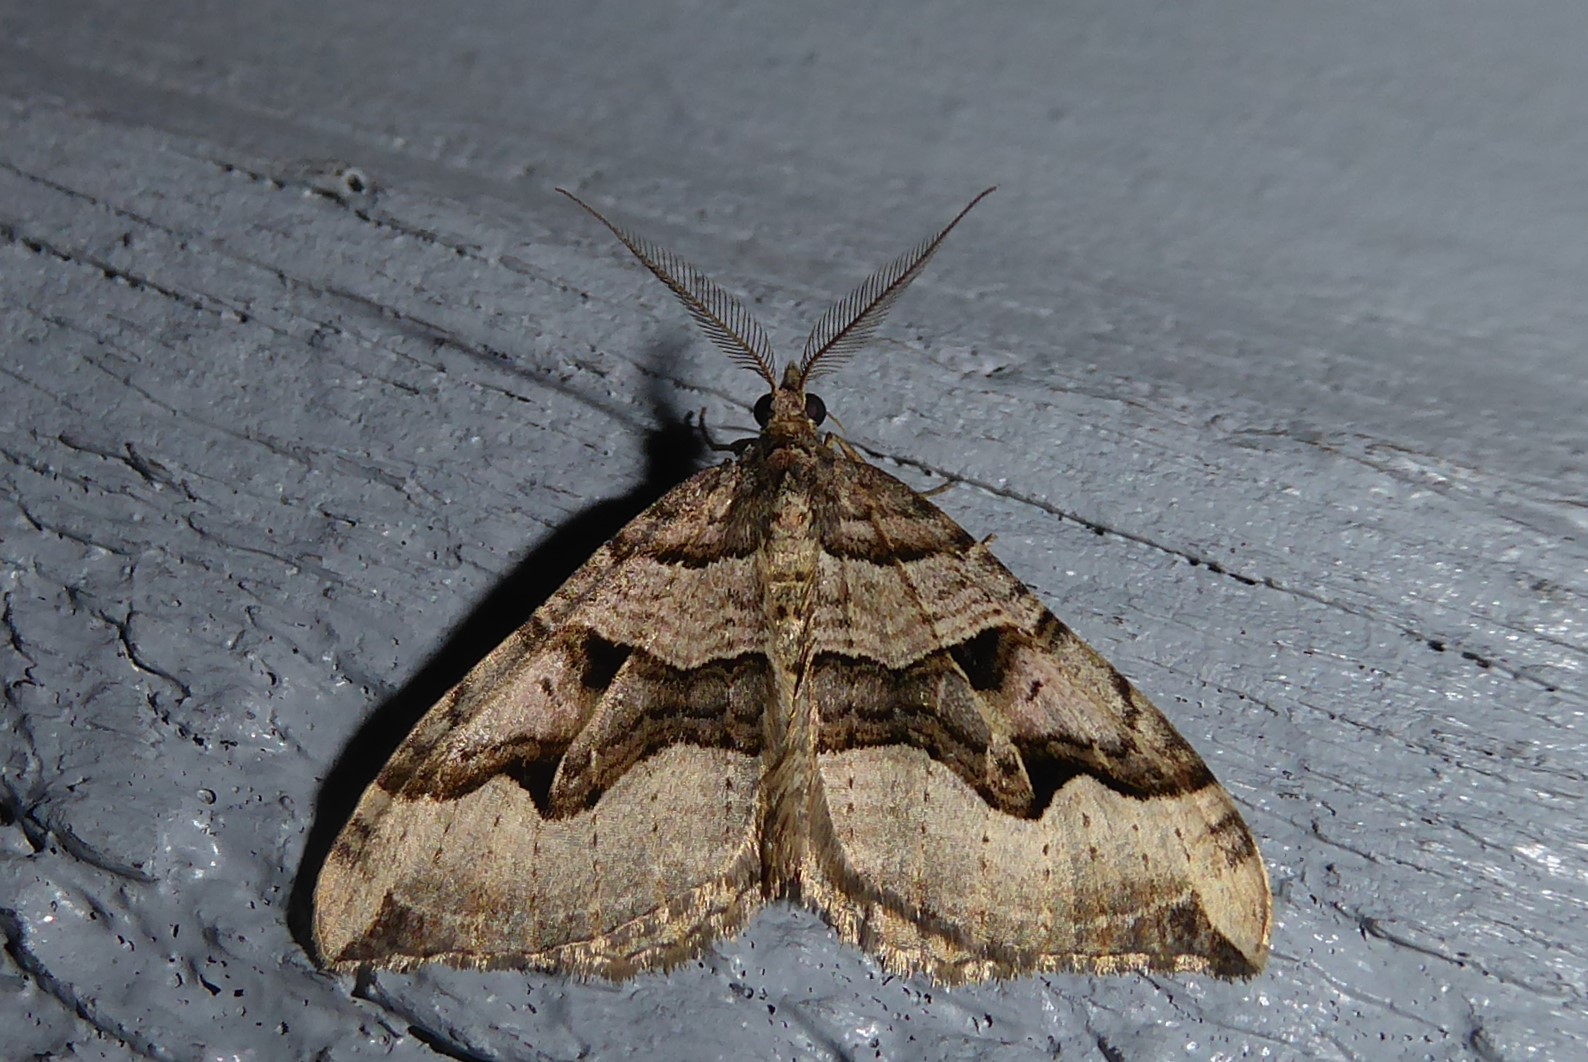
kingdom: Animalia
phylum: Arthropoda
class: Insecta
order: Lepidoptera
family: Geometridae
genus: Xanthorhoe
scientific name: Xanthorhoe semifissata
